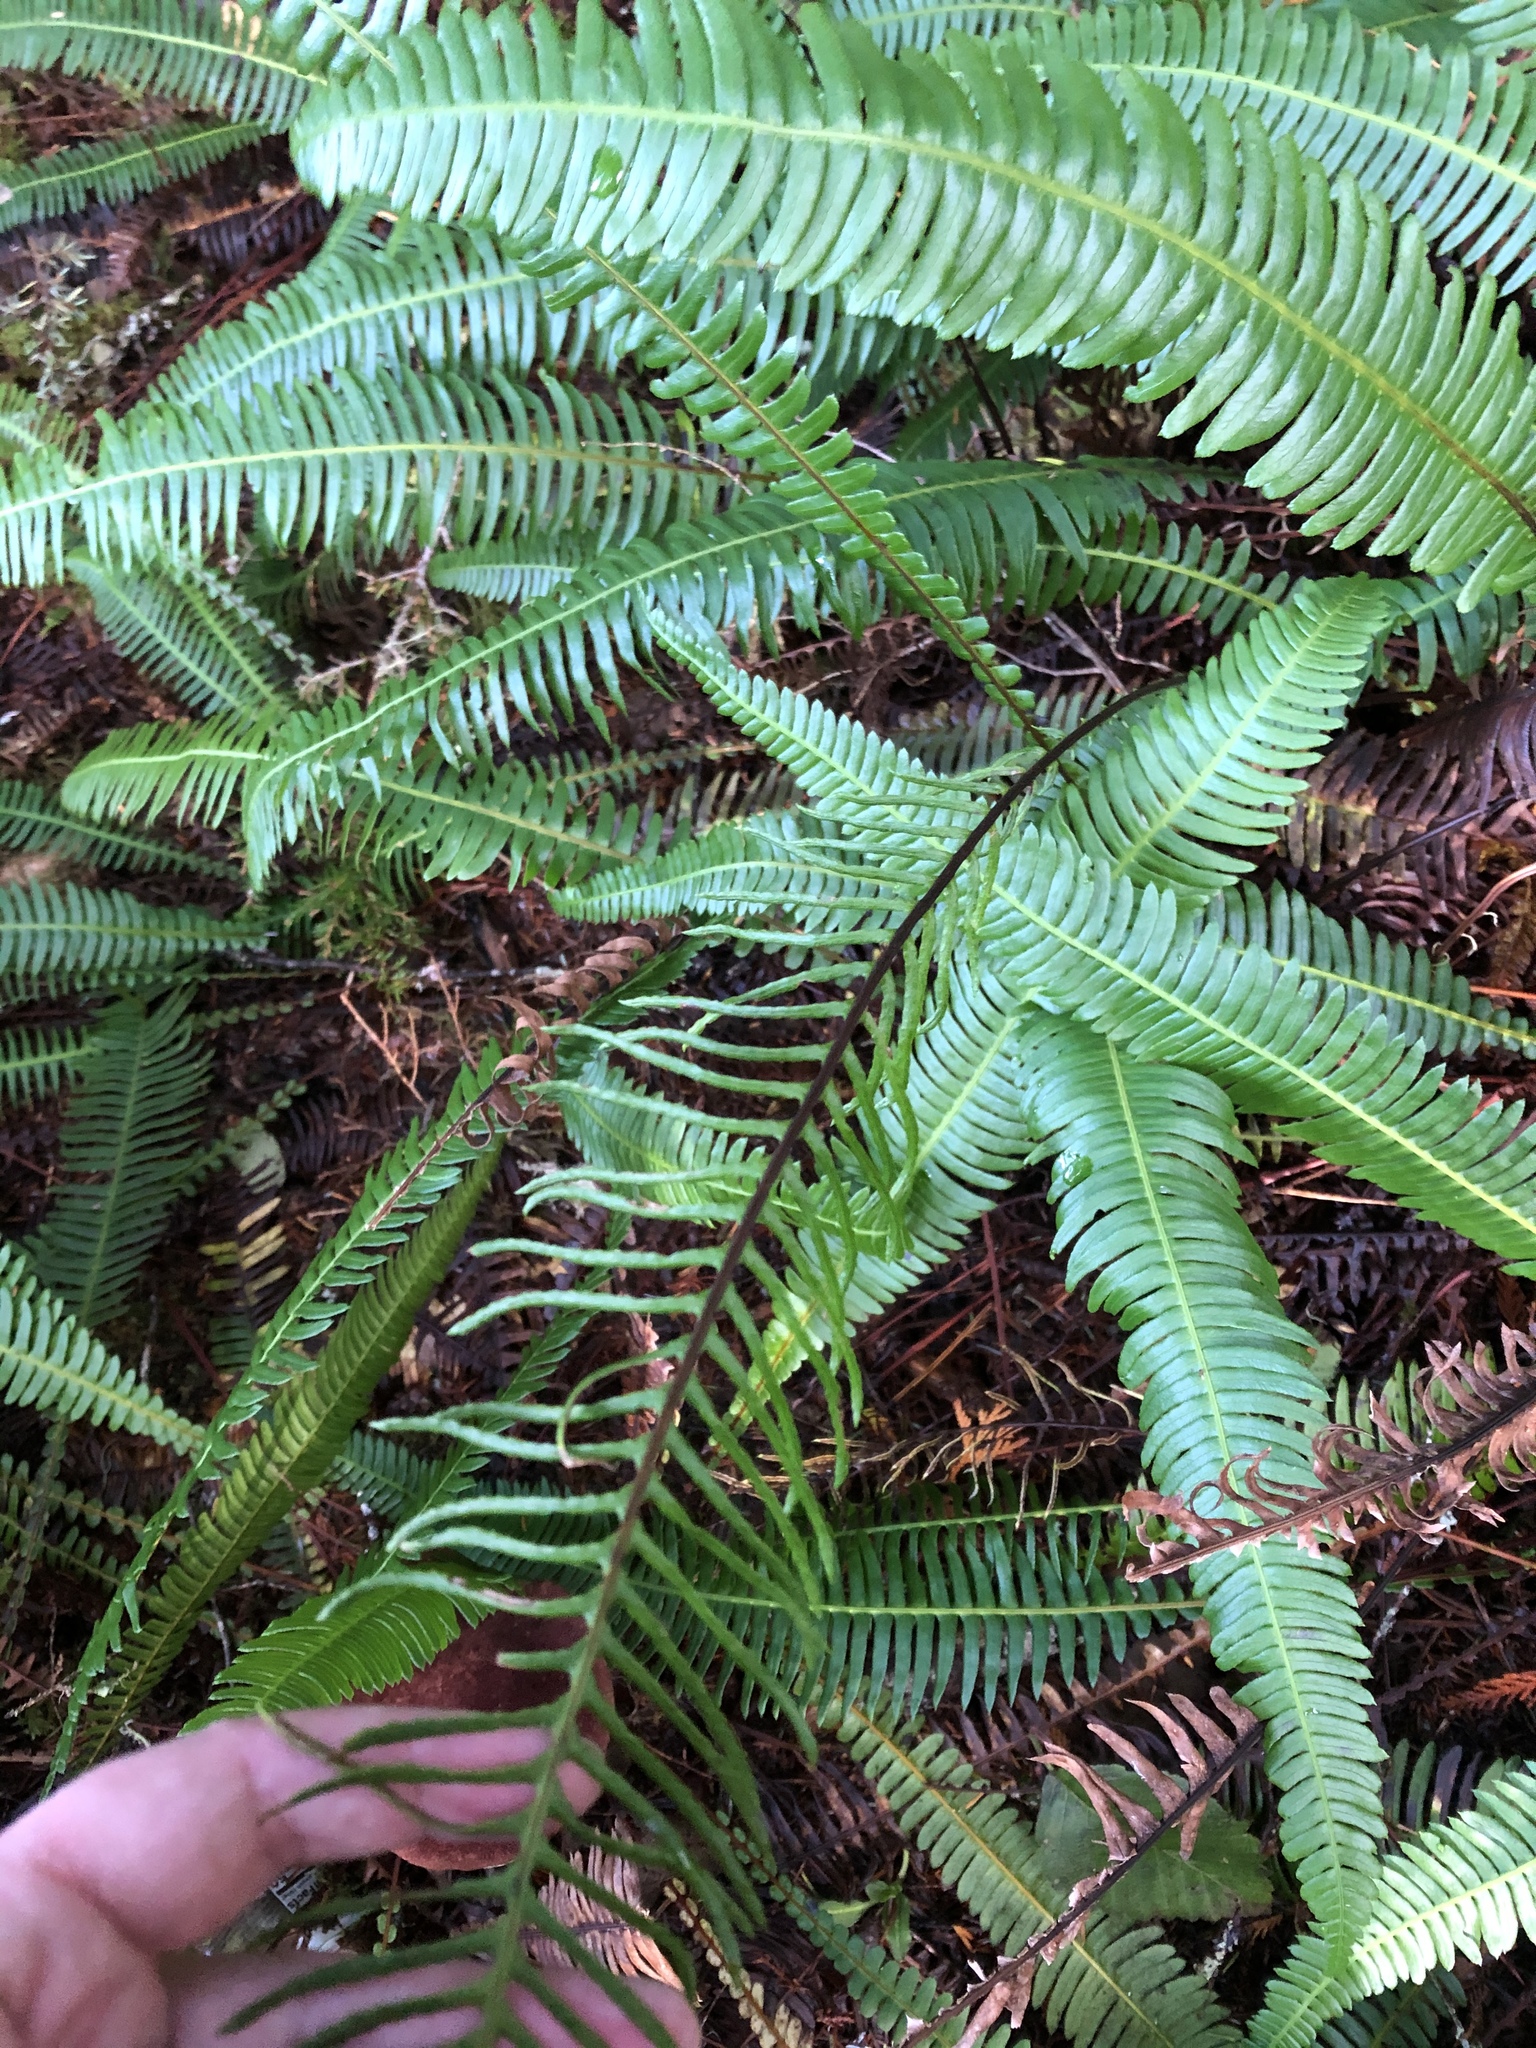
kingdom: Plantae
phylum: Tracheophyta
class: Polypodiopsida
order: Polypodiales
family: Blechnaceae
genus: Struthiopteris
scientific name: Struthiopteris spicant
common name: Deer fern
